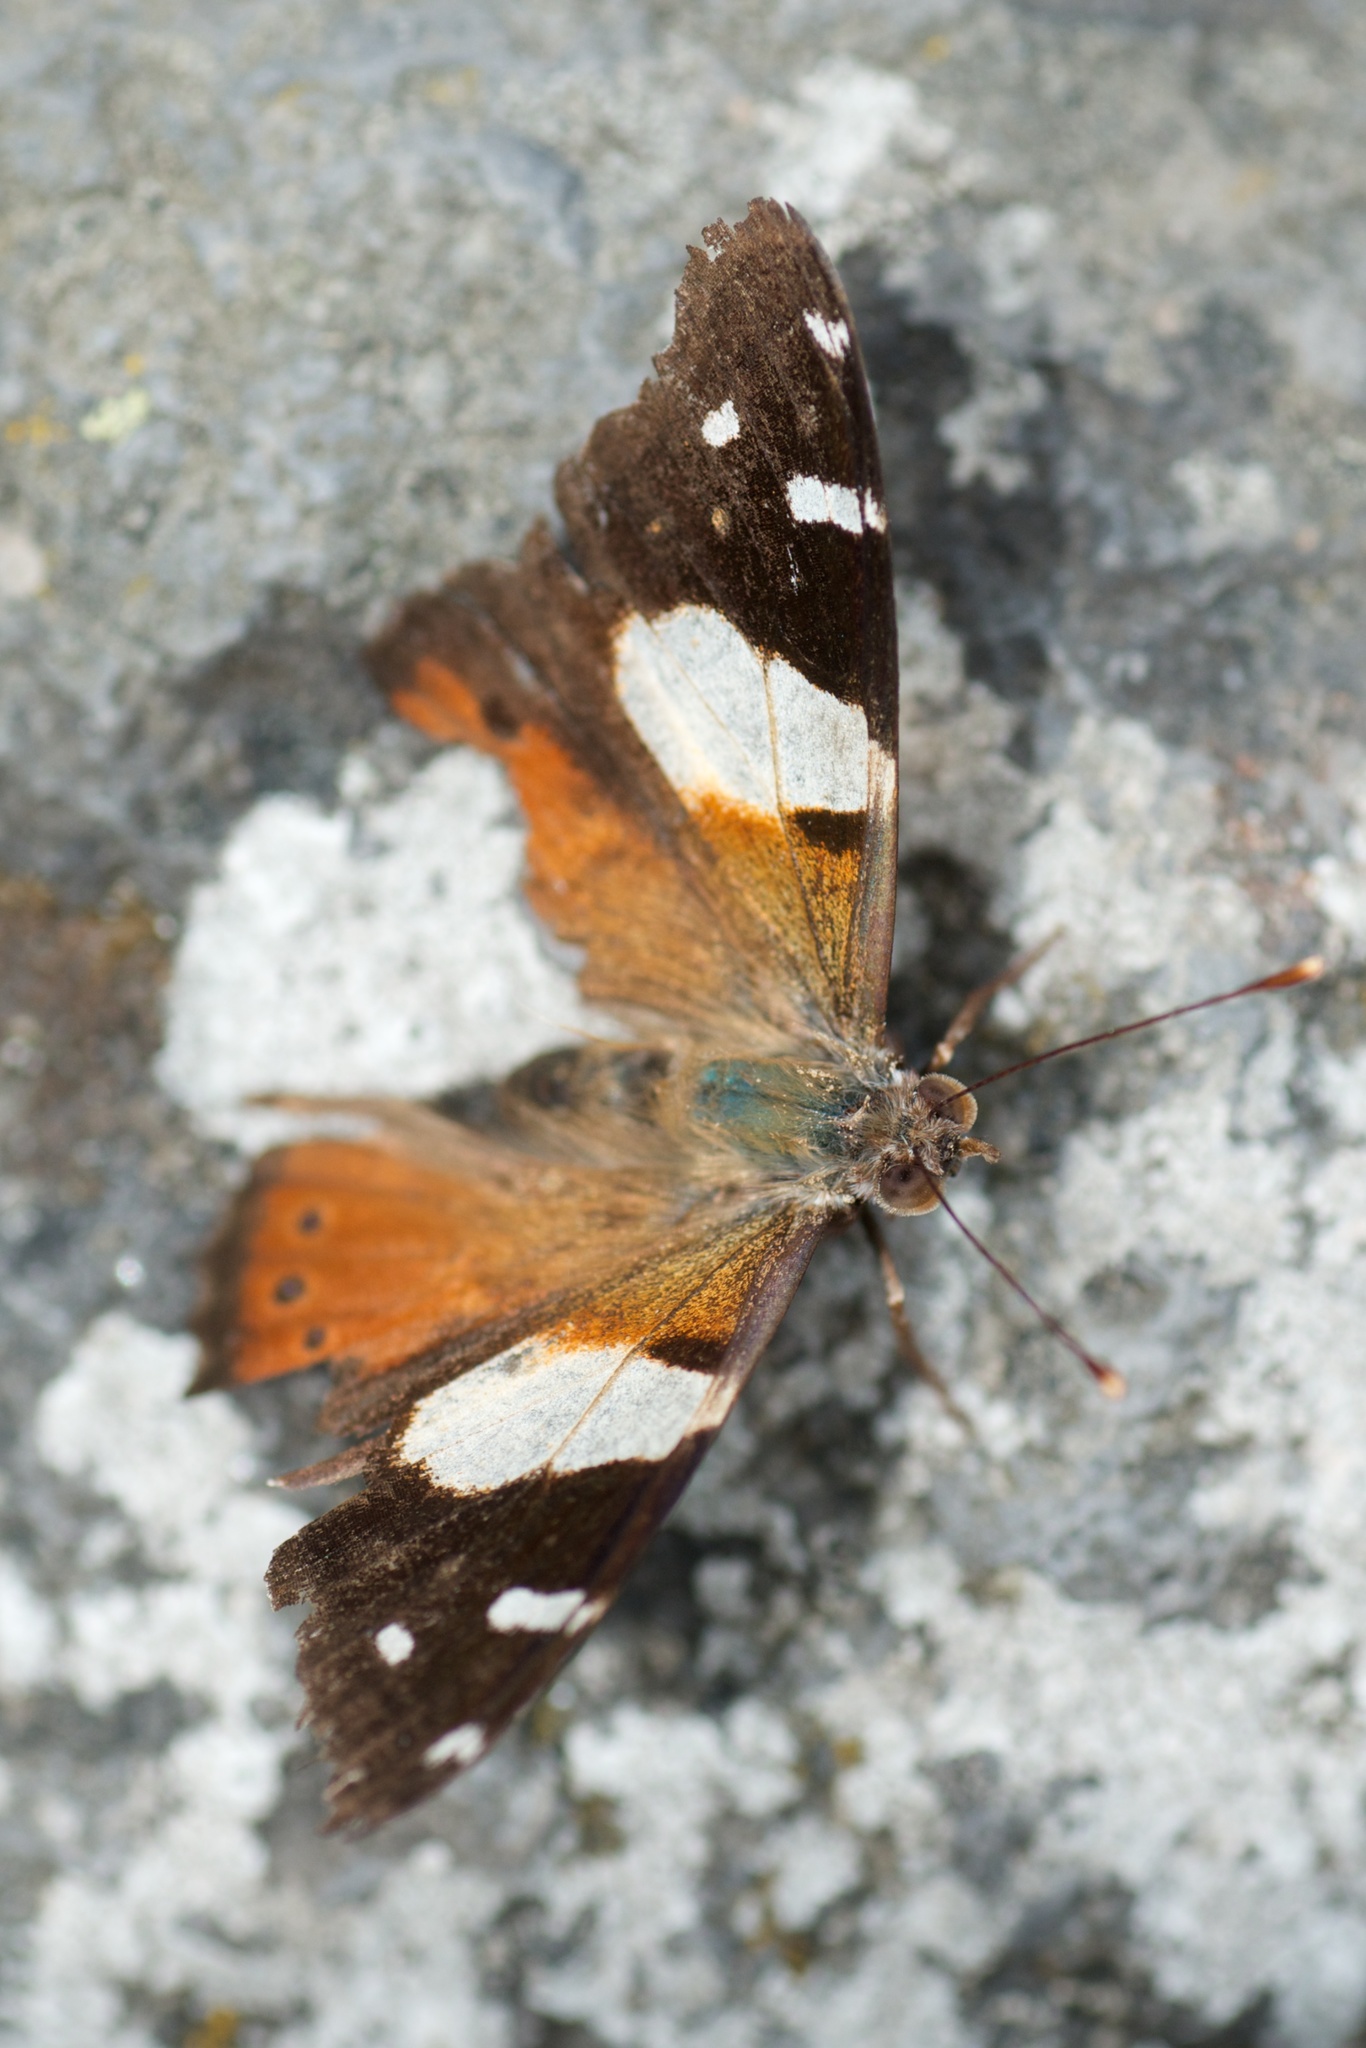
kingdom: Animalia
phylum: Arthropoda
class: Insecta
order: Lepidoptera
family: Nymphalidae
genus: Vanessa
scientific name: Vanessa itea
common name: Yellow admiral
